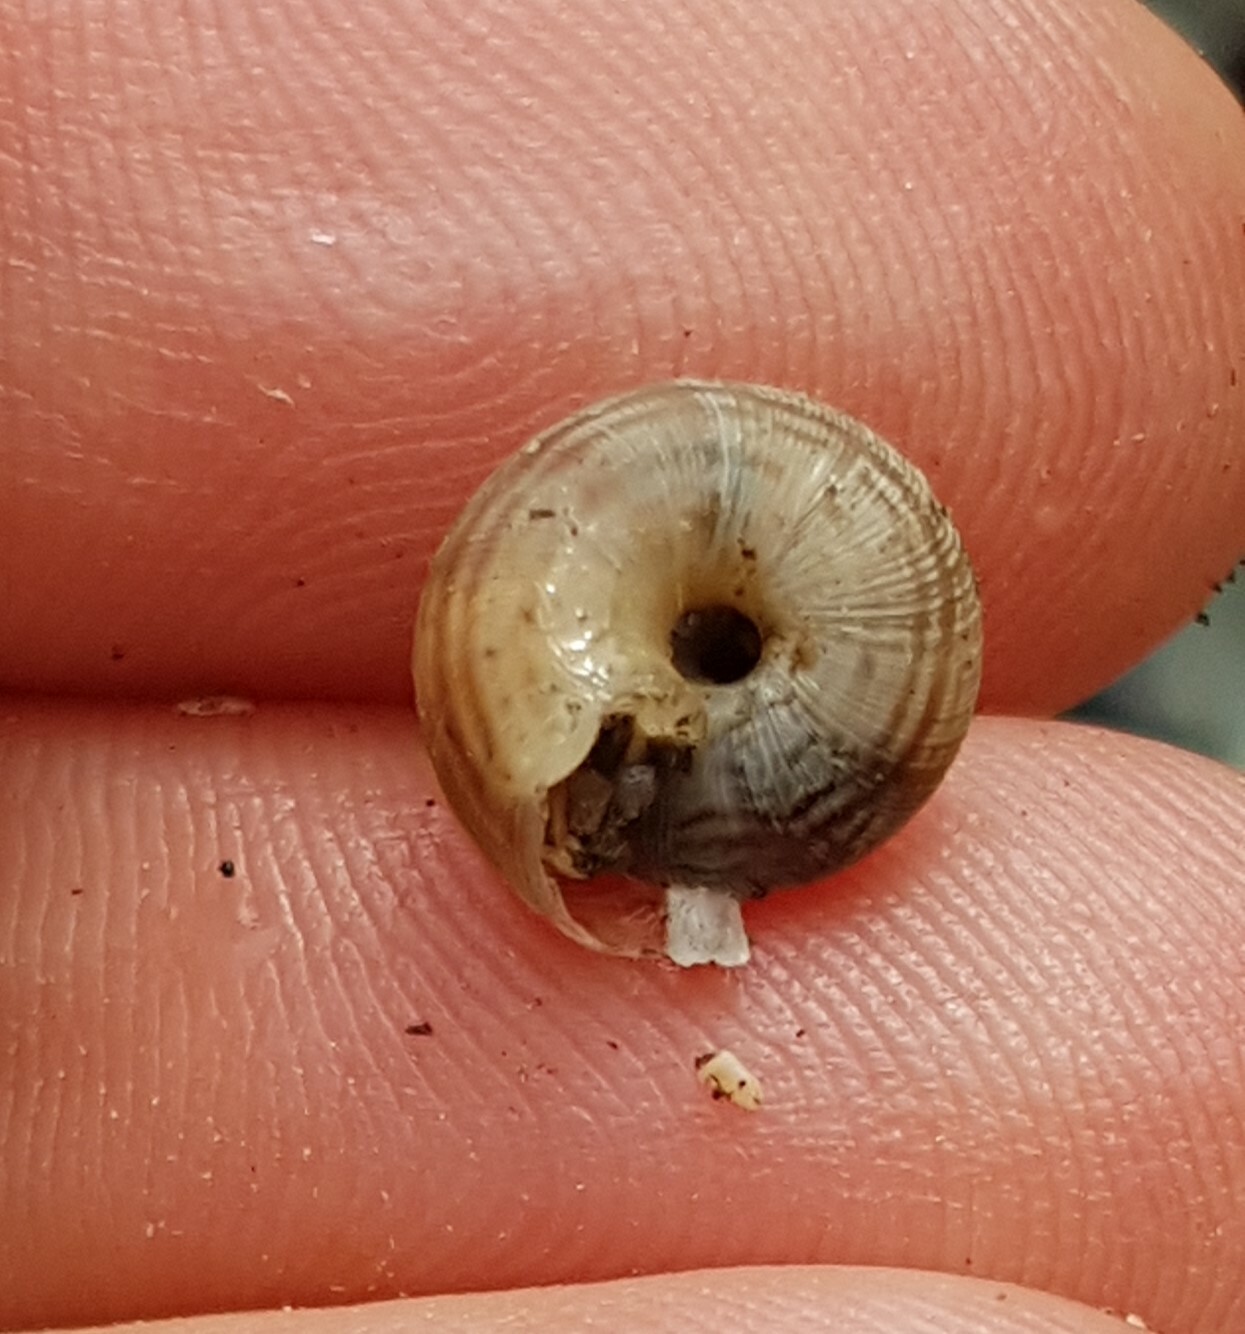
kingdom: Animalia
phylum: Mollusca
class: Gastropoda
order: Stylommatophora
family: Geomitridae
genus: Xeroplexa
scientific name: Xeroplexa intersecta
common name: Wrinkled snail
